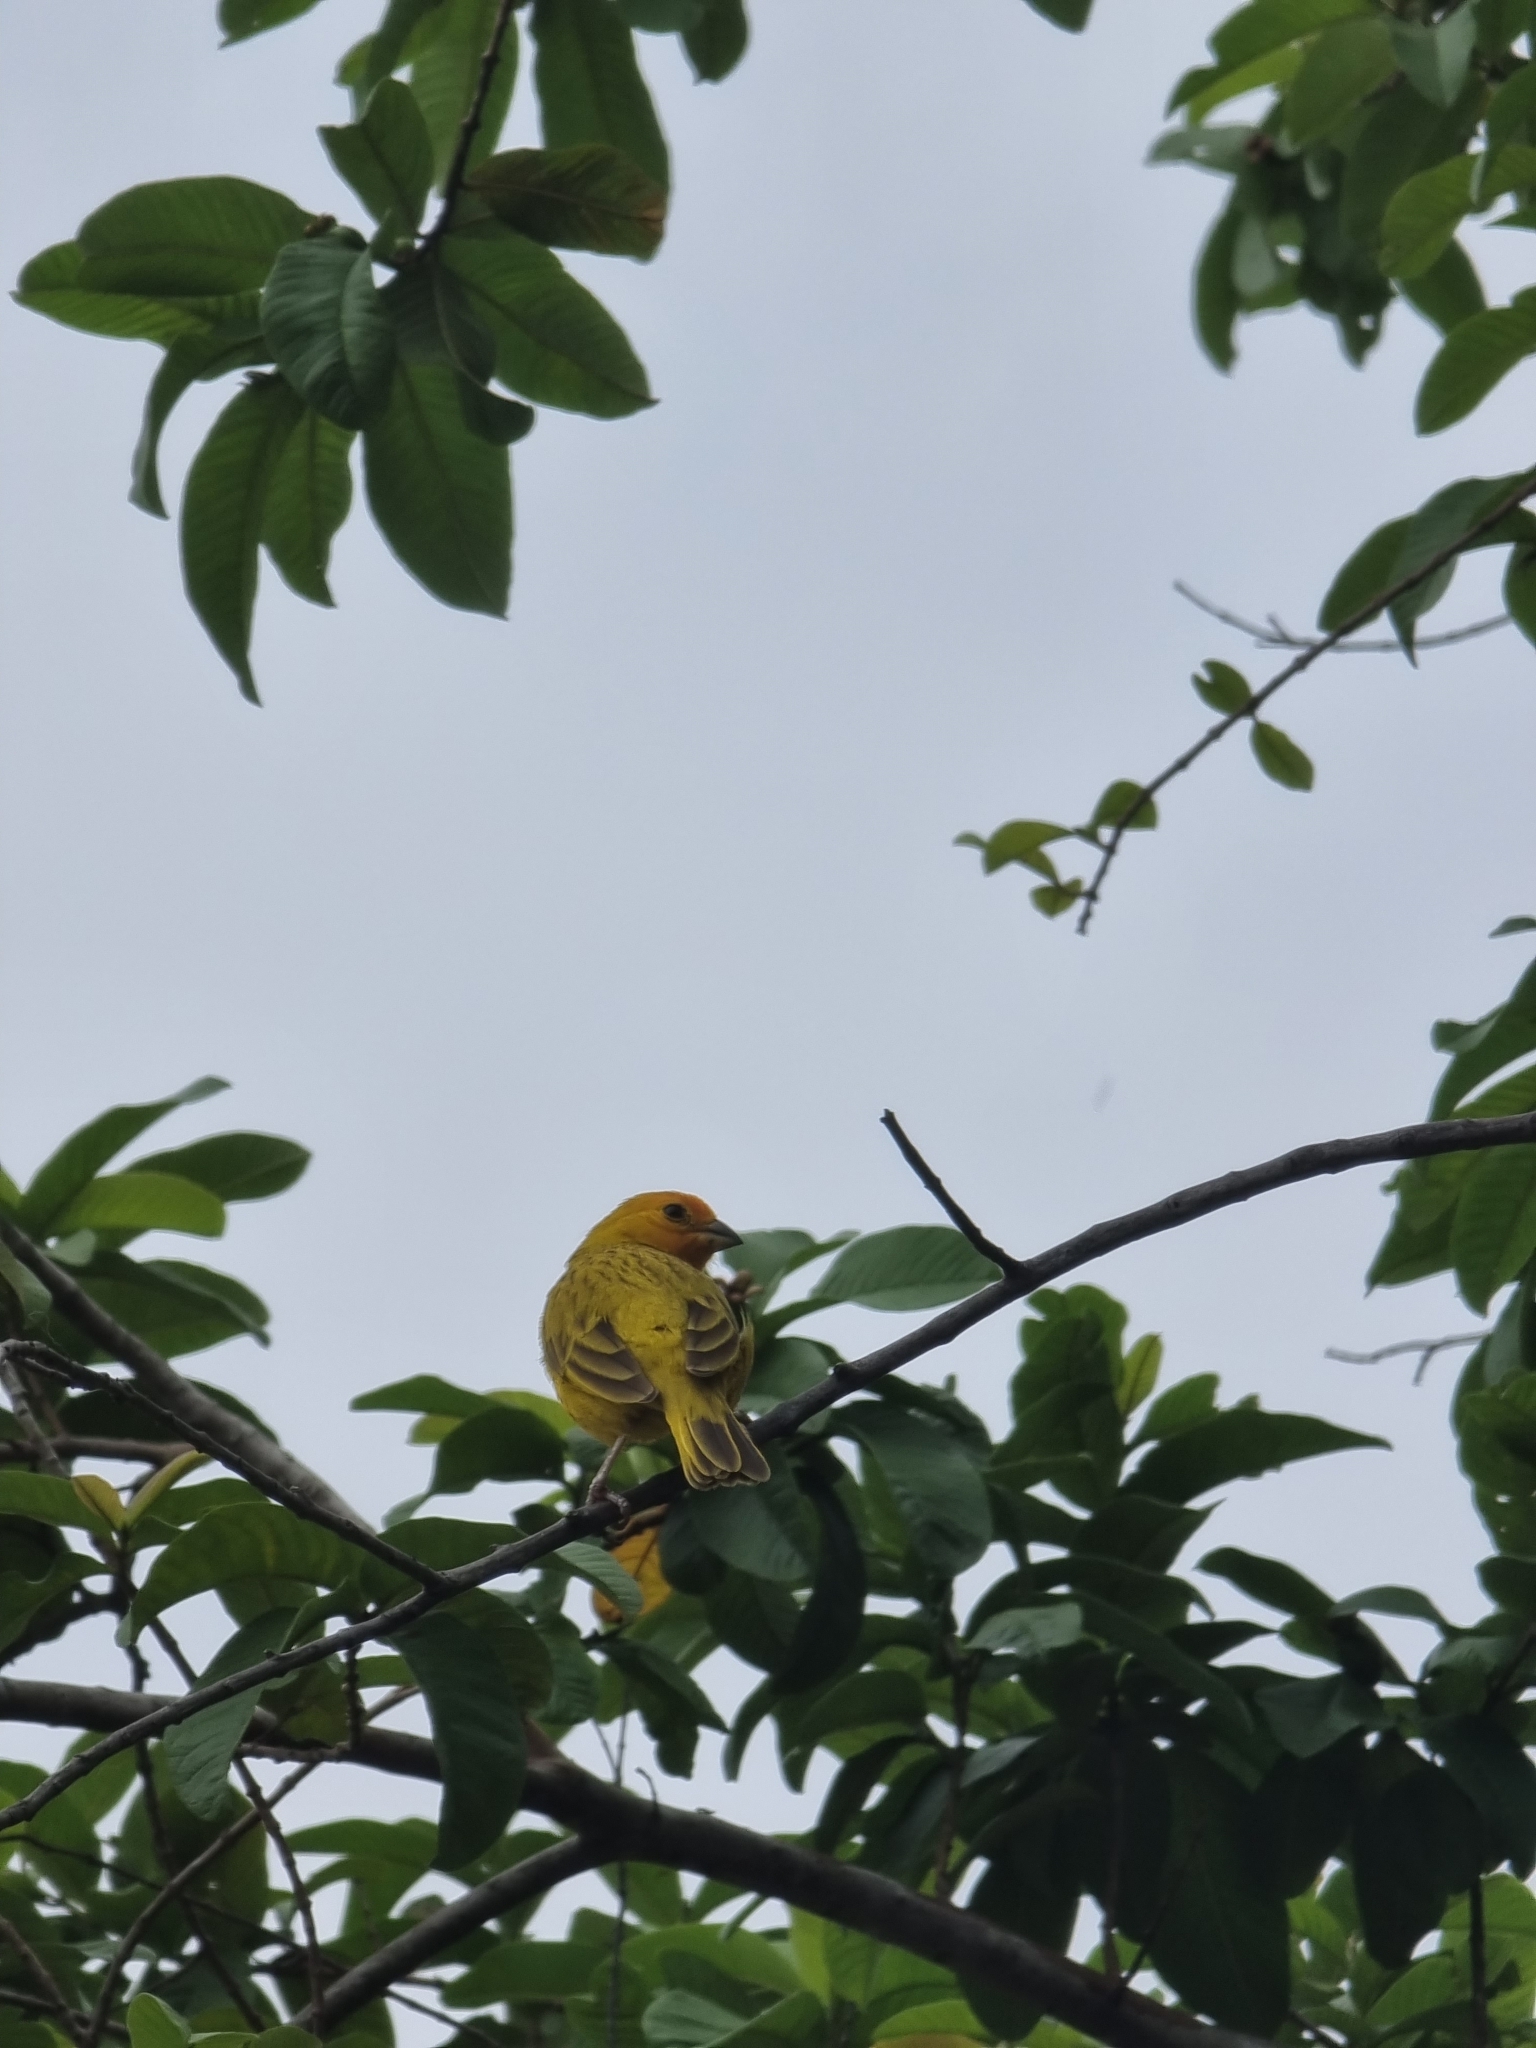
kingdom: Animalia
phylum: Chordata
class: Aves
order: Passeriformes
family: Thraupidae
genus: Sicalis
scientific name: Sicalis flaveola
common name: Saffron finch
